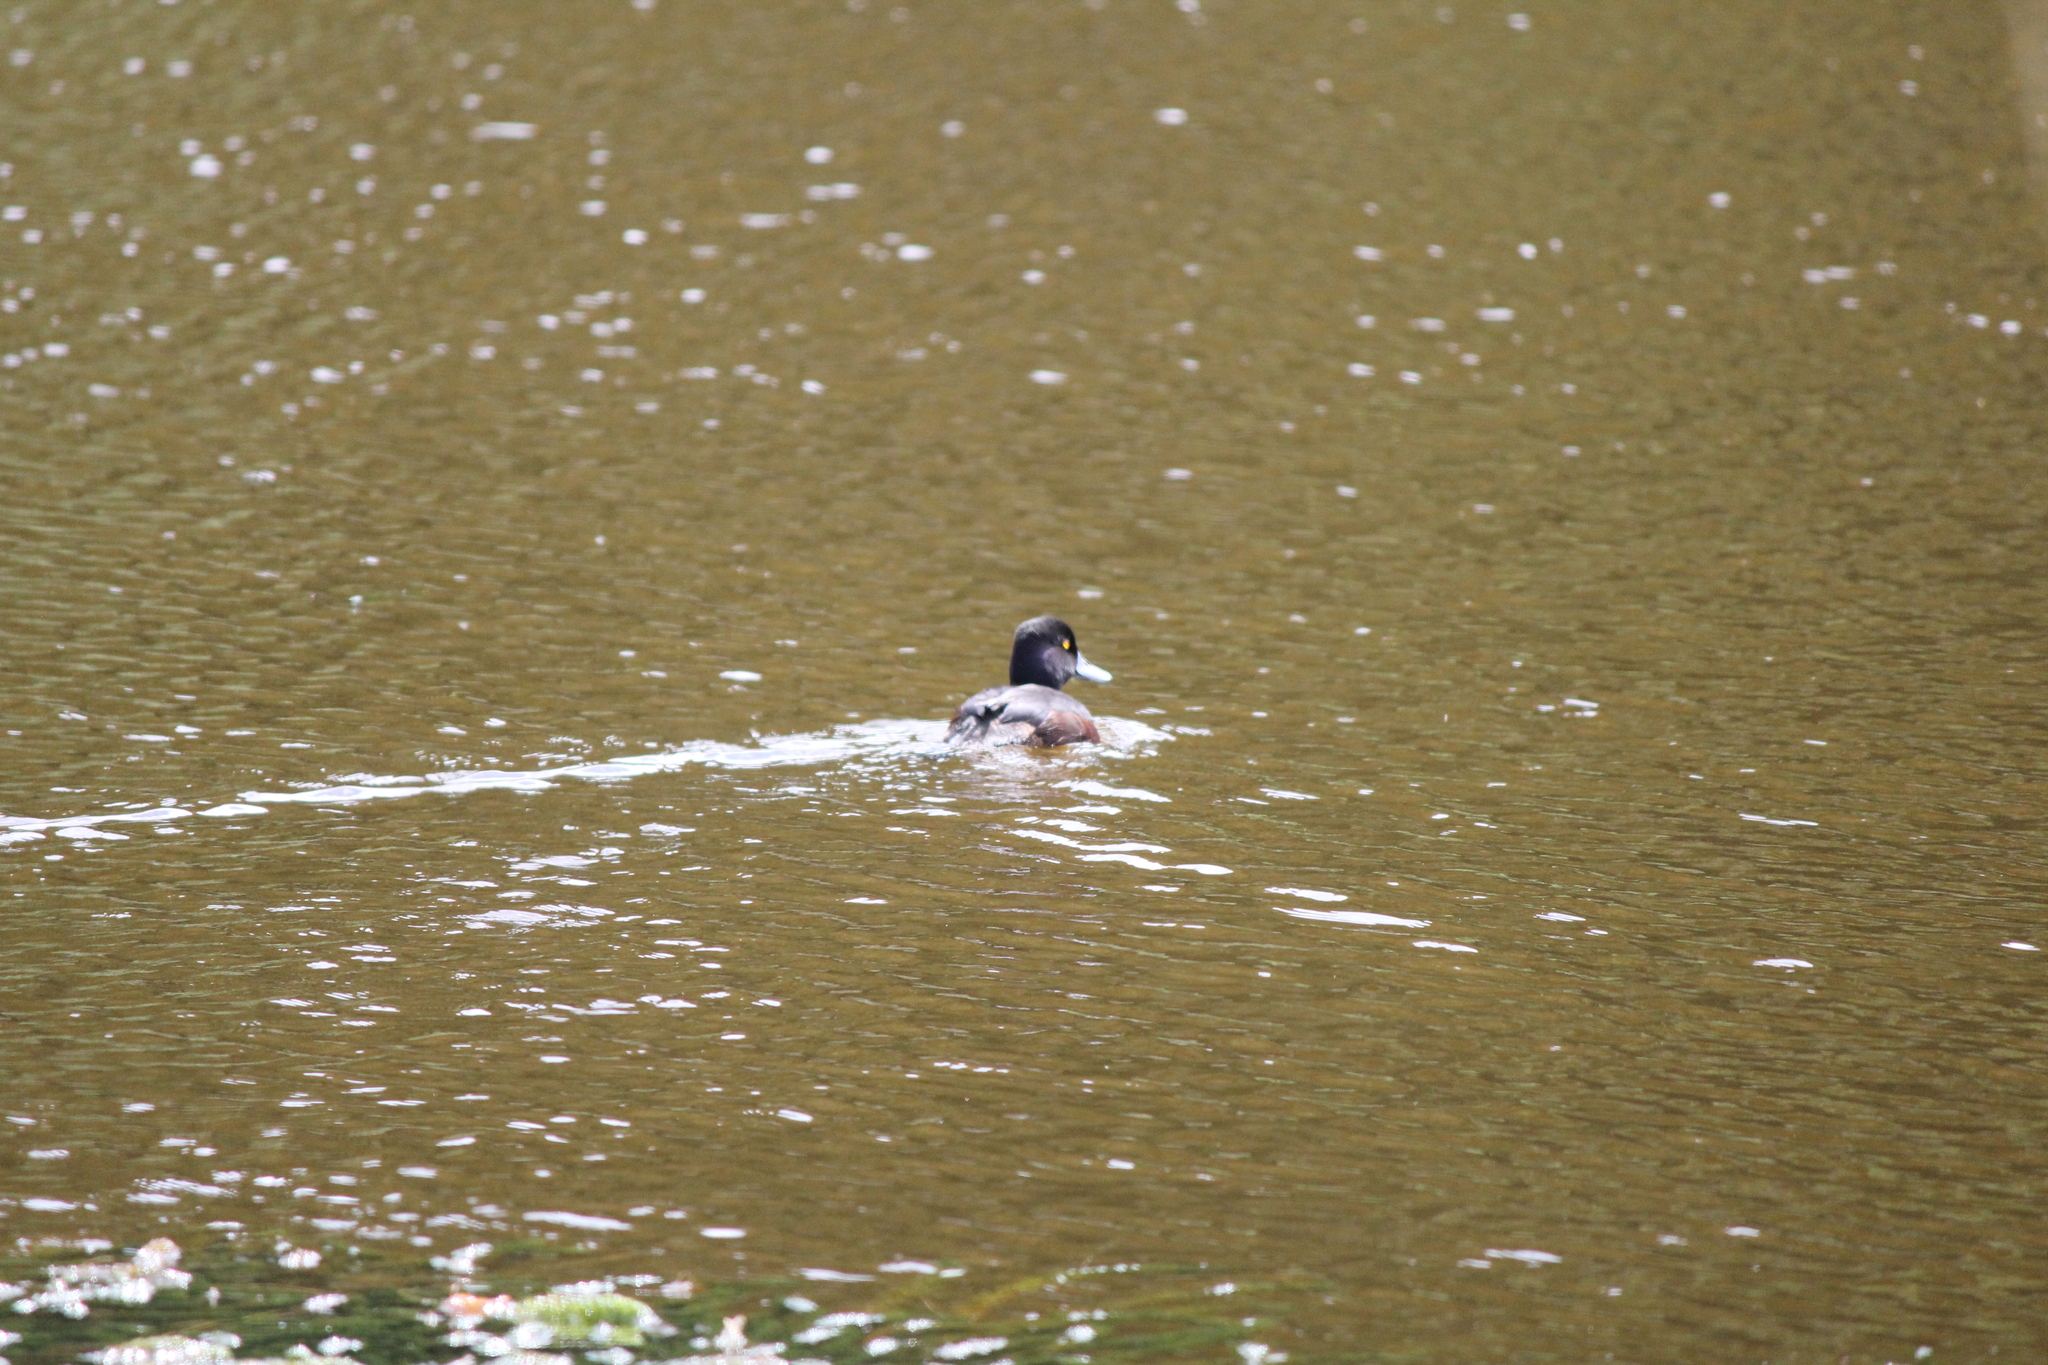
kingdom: Animalia
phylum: Chordata
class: Aves
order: Anseriformes
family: Anatidae
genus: Aythya
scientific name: Aythya novaeseelandiae
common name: New zealand scaup
